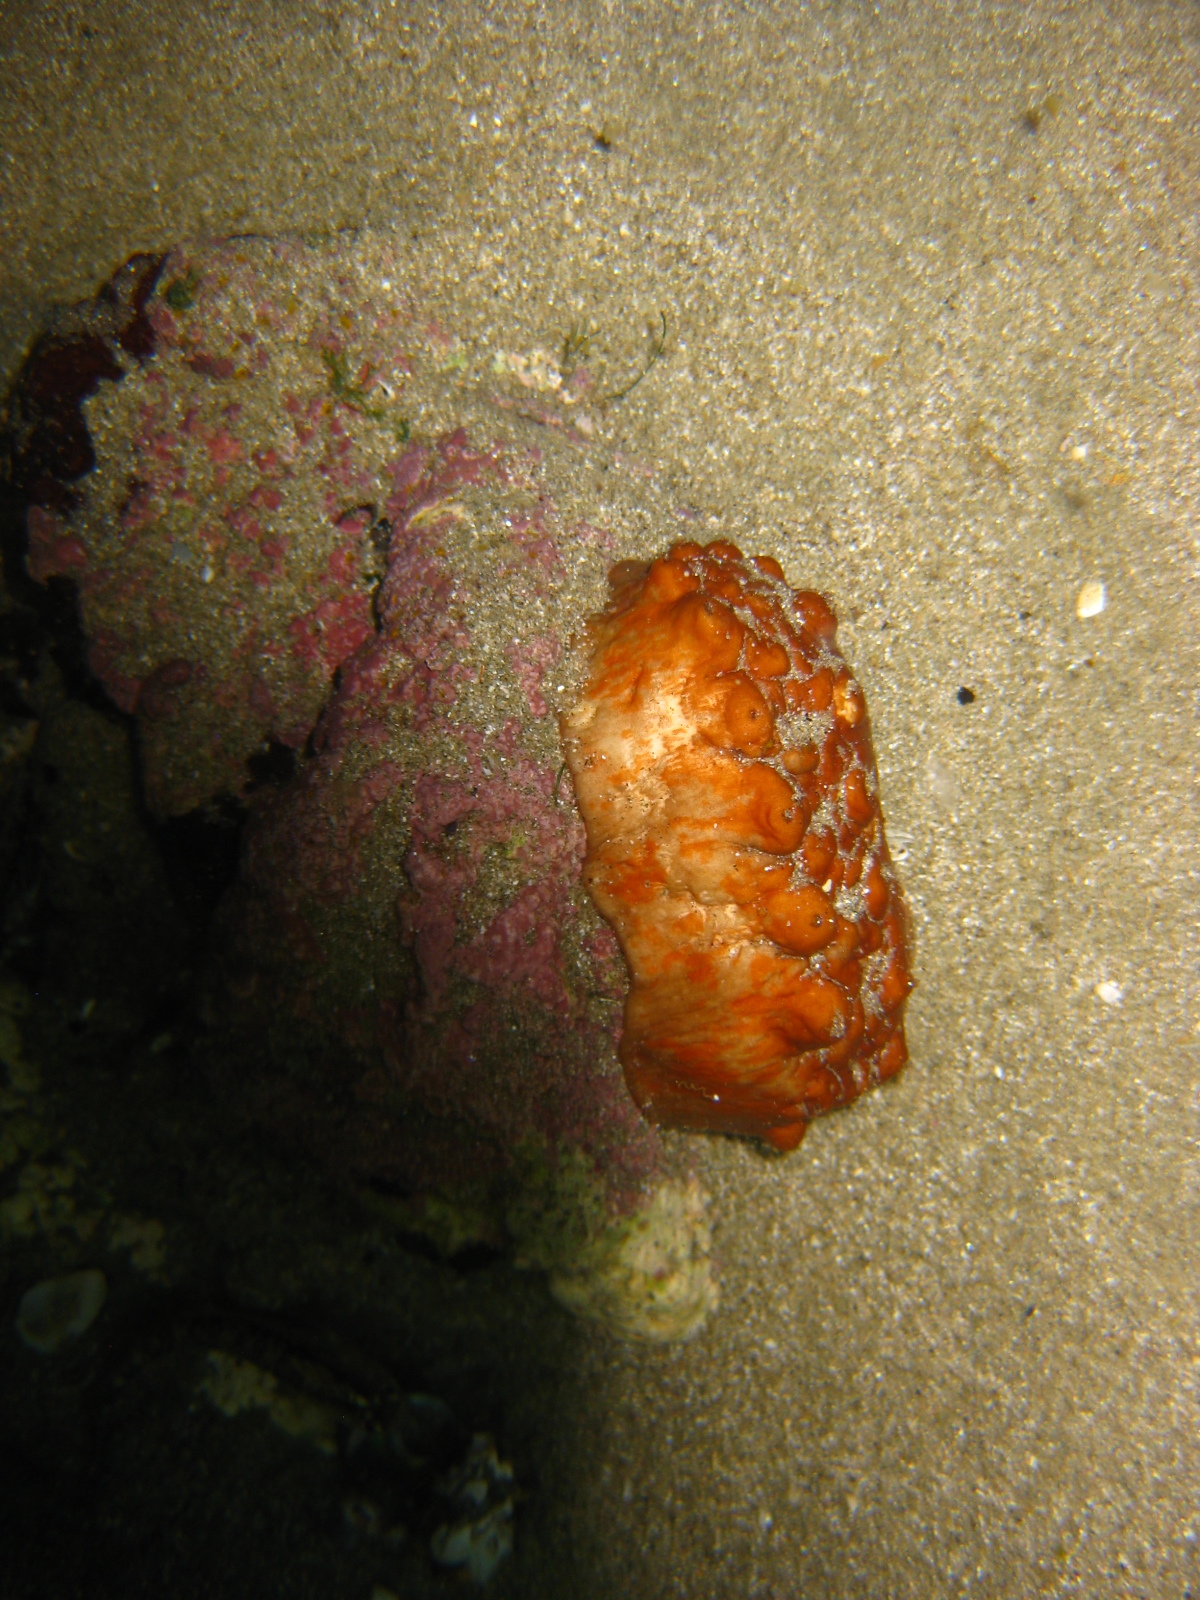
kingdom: Animalia
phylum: Mollusca
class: Polyplacophora
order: Chitonida
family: Acanthochitonidae
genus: Cryptoconchus
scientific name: Cryptoconchus porosus
